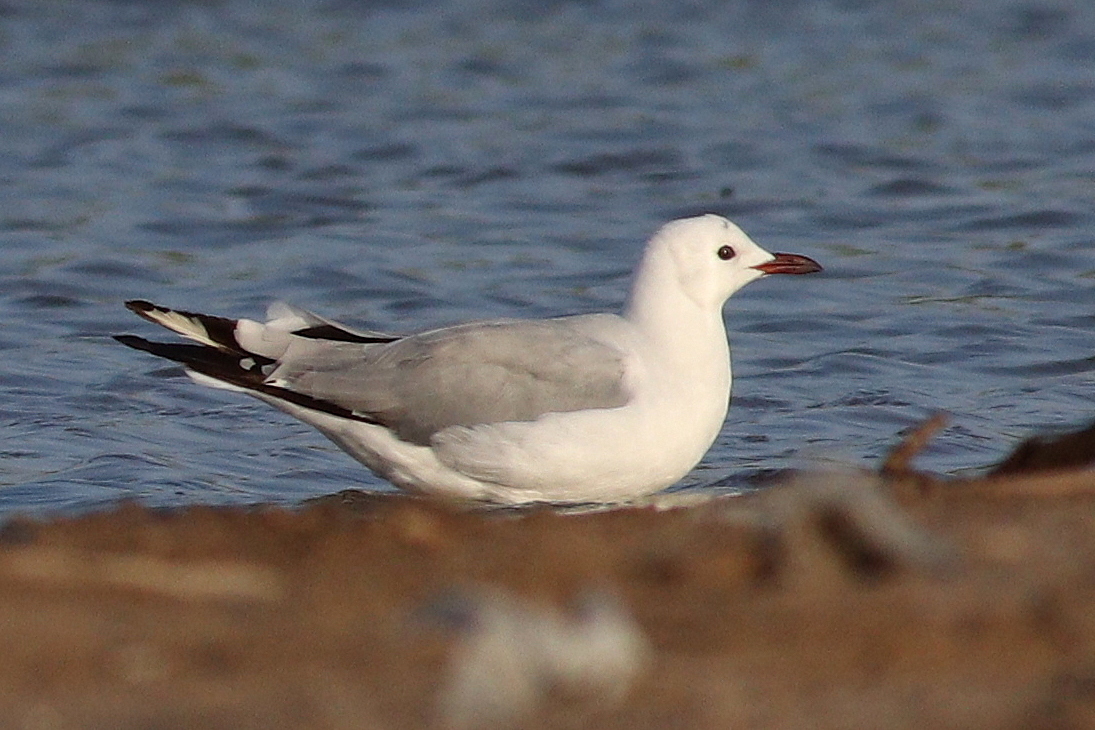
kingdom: Animalia
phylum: Chordata
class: Aves
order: Charadriiformes
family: Laridae
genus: Chroicocephalus
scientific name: Chroicocephalus hartlaubii
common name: Hartlaub's gull
